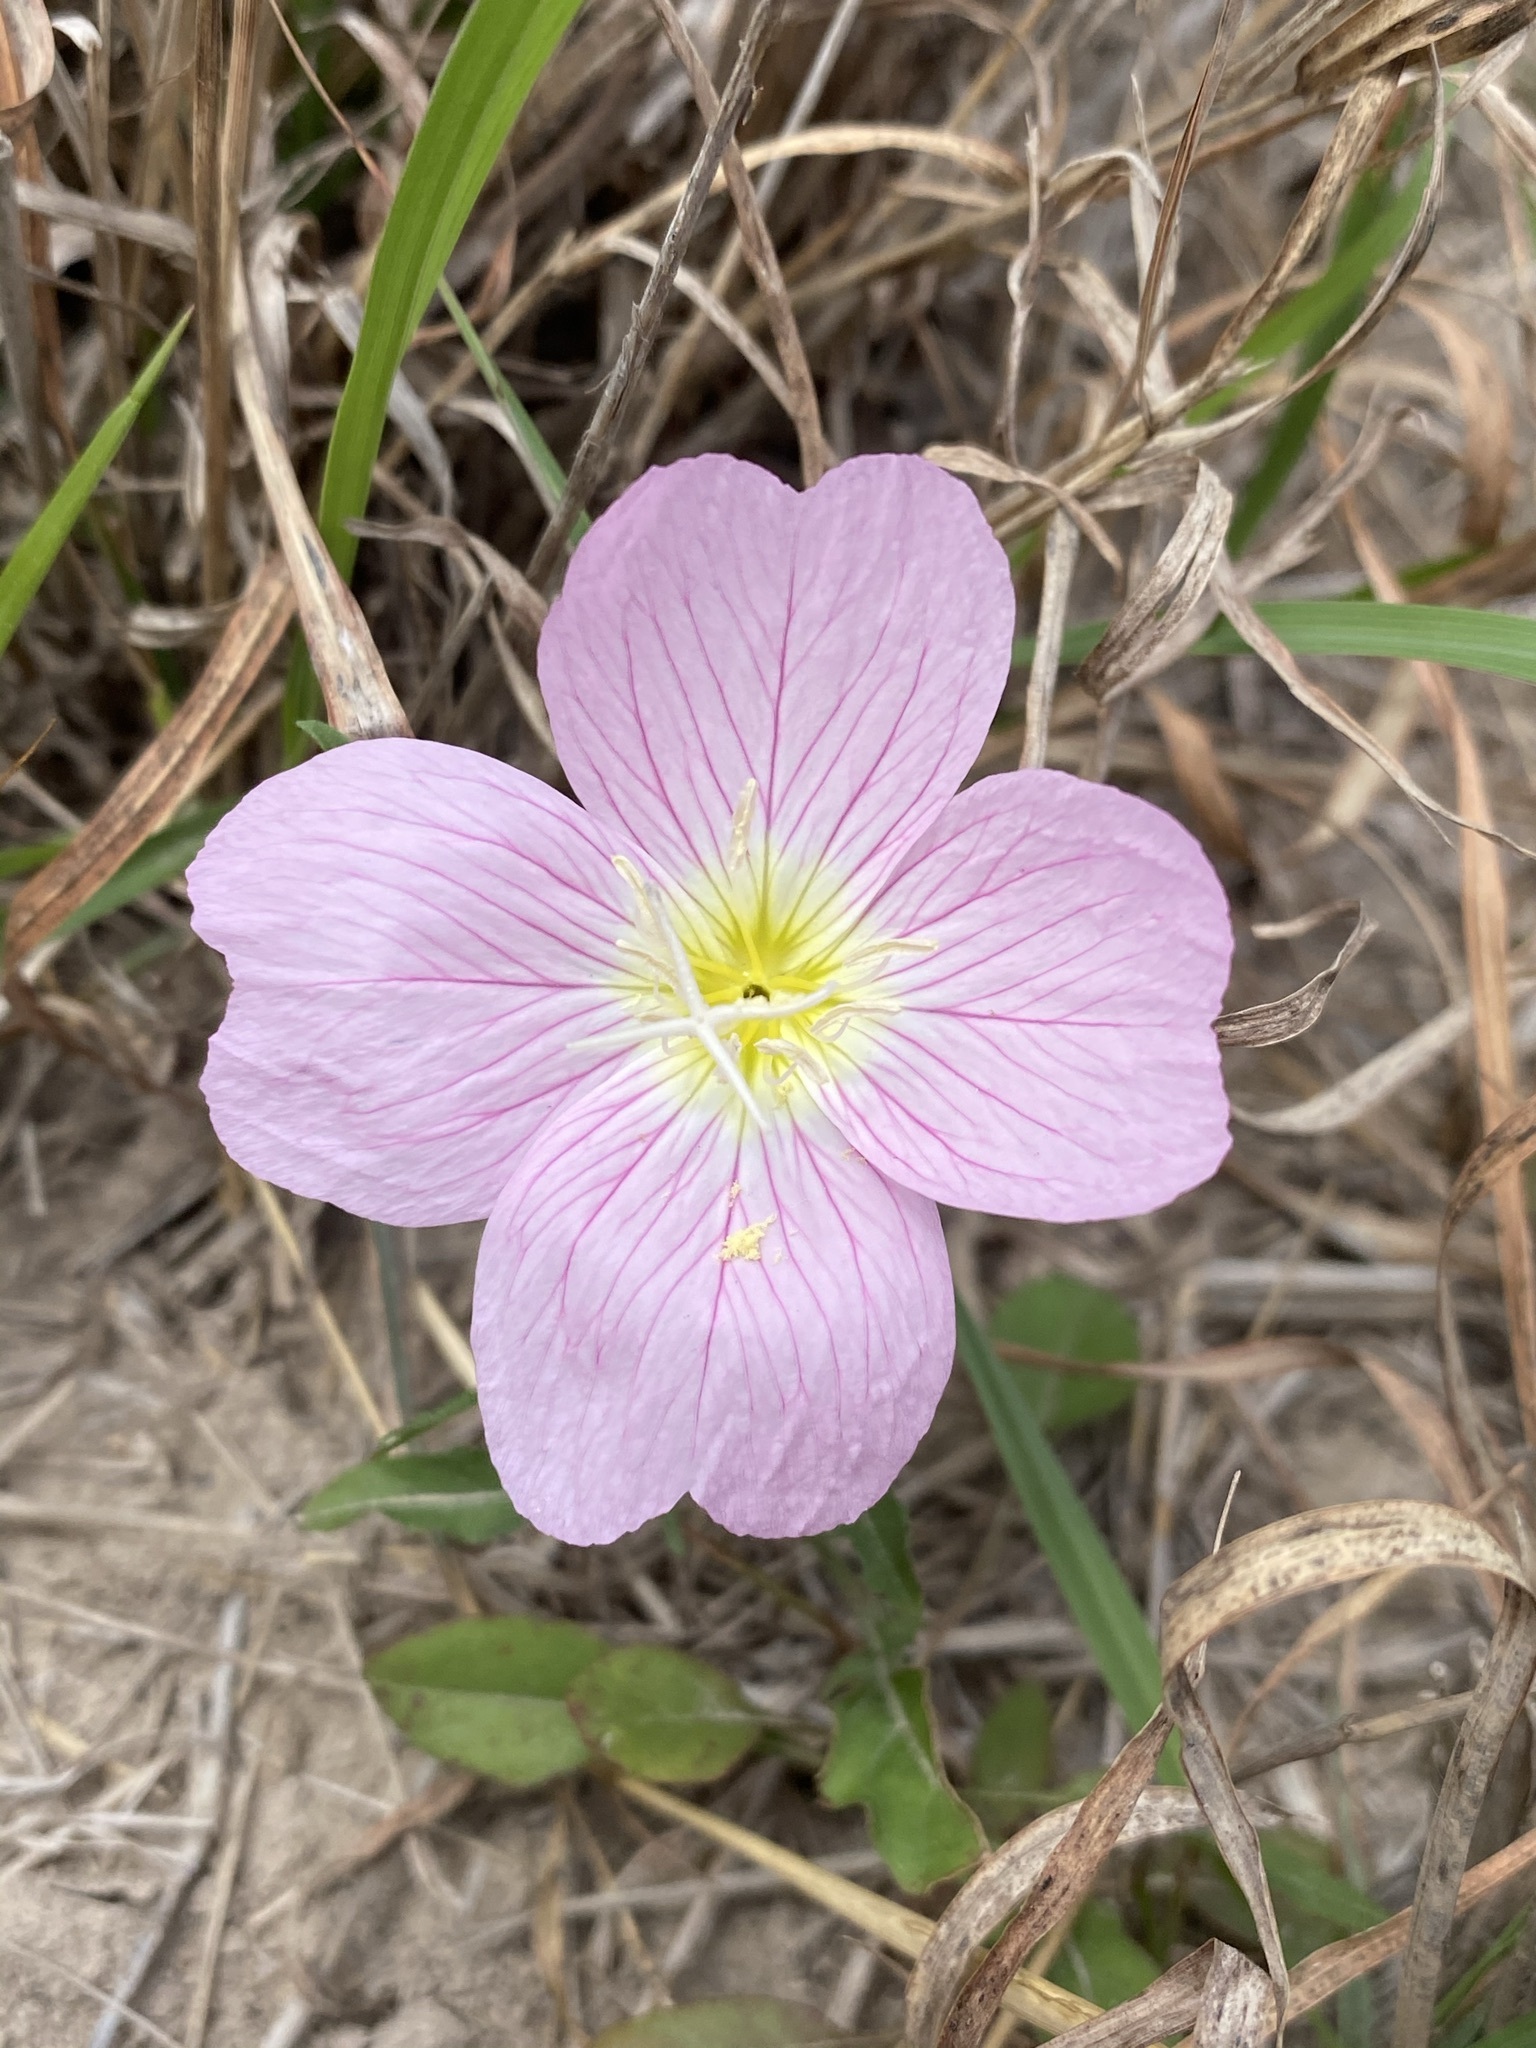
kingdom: Plantae
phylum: Tracheophyta
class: Magnoliopsida
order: Myrtales
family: Onagraceae
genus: Oenothera
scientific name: Oenothera speciosa
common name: White evening-primrose
